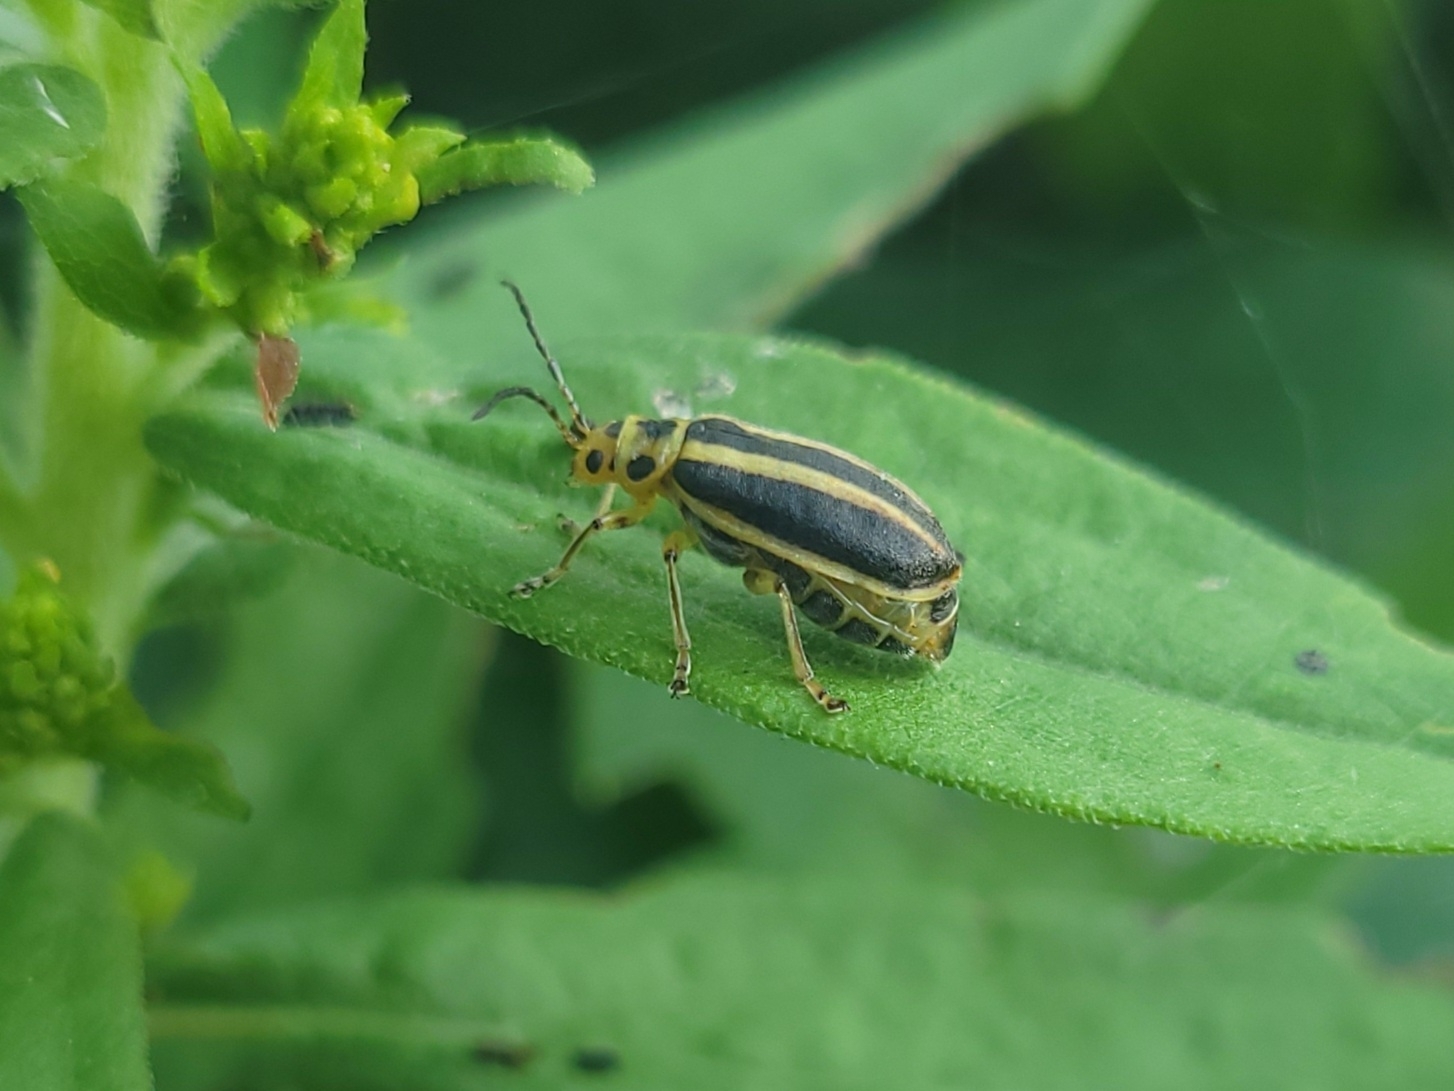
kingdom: Animalia
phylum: Arthropoda
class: Insecta
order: Coleoptera
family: Chrysomelidae
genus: Trirhabda
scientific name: Trirhabda canadensis
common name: Goldenrod leaf beetle
